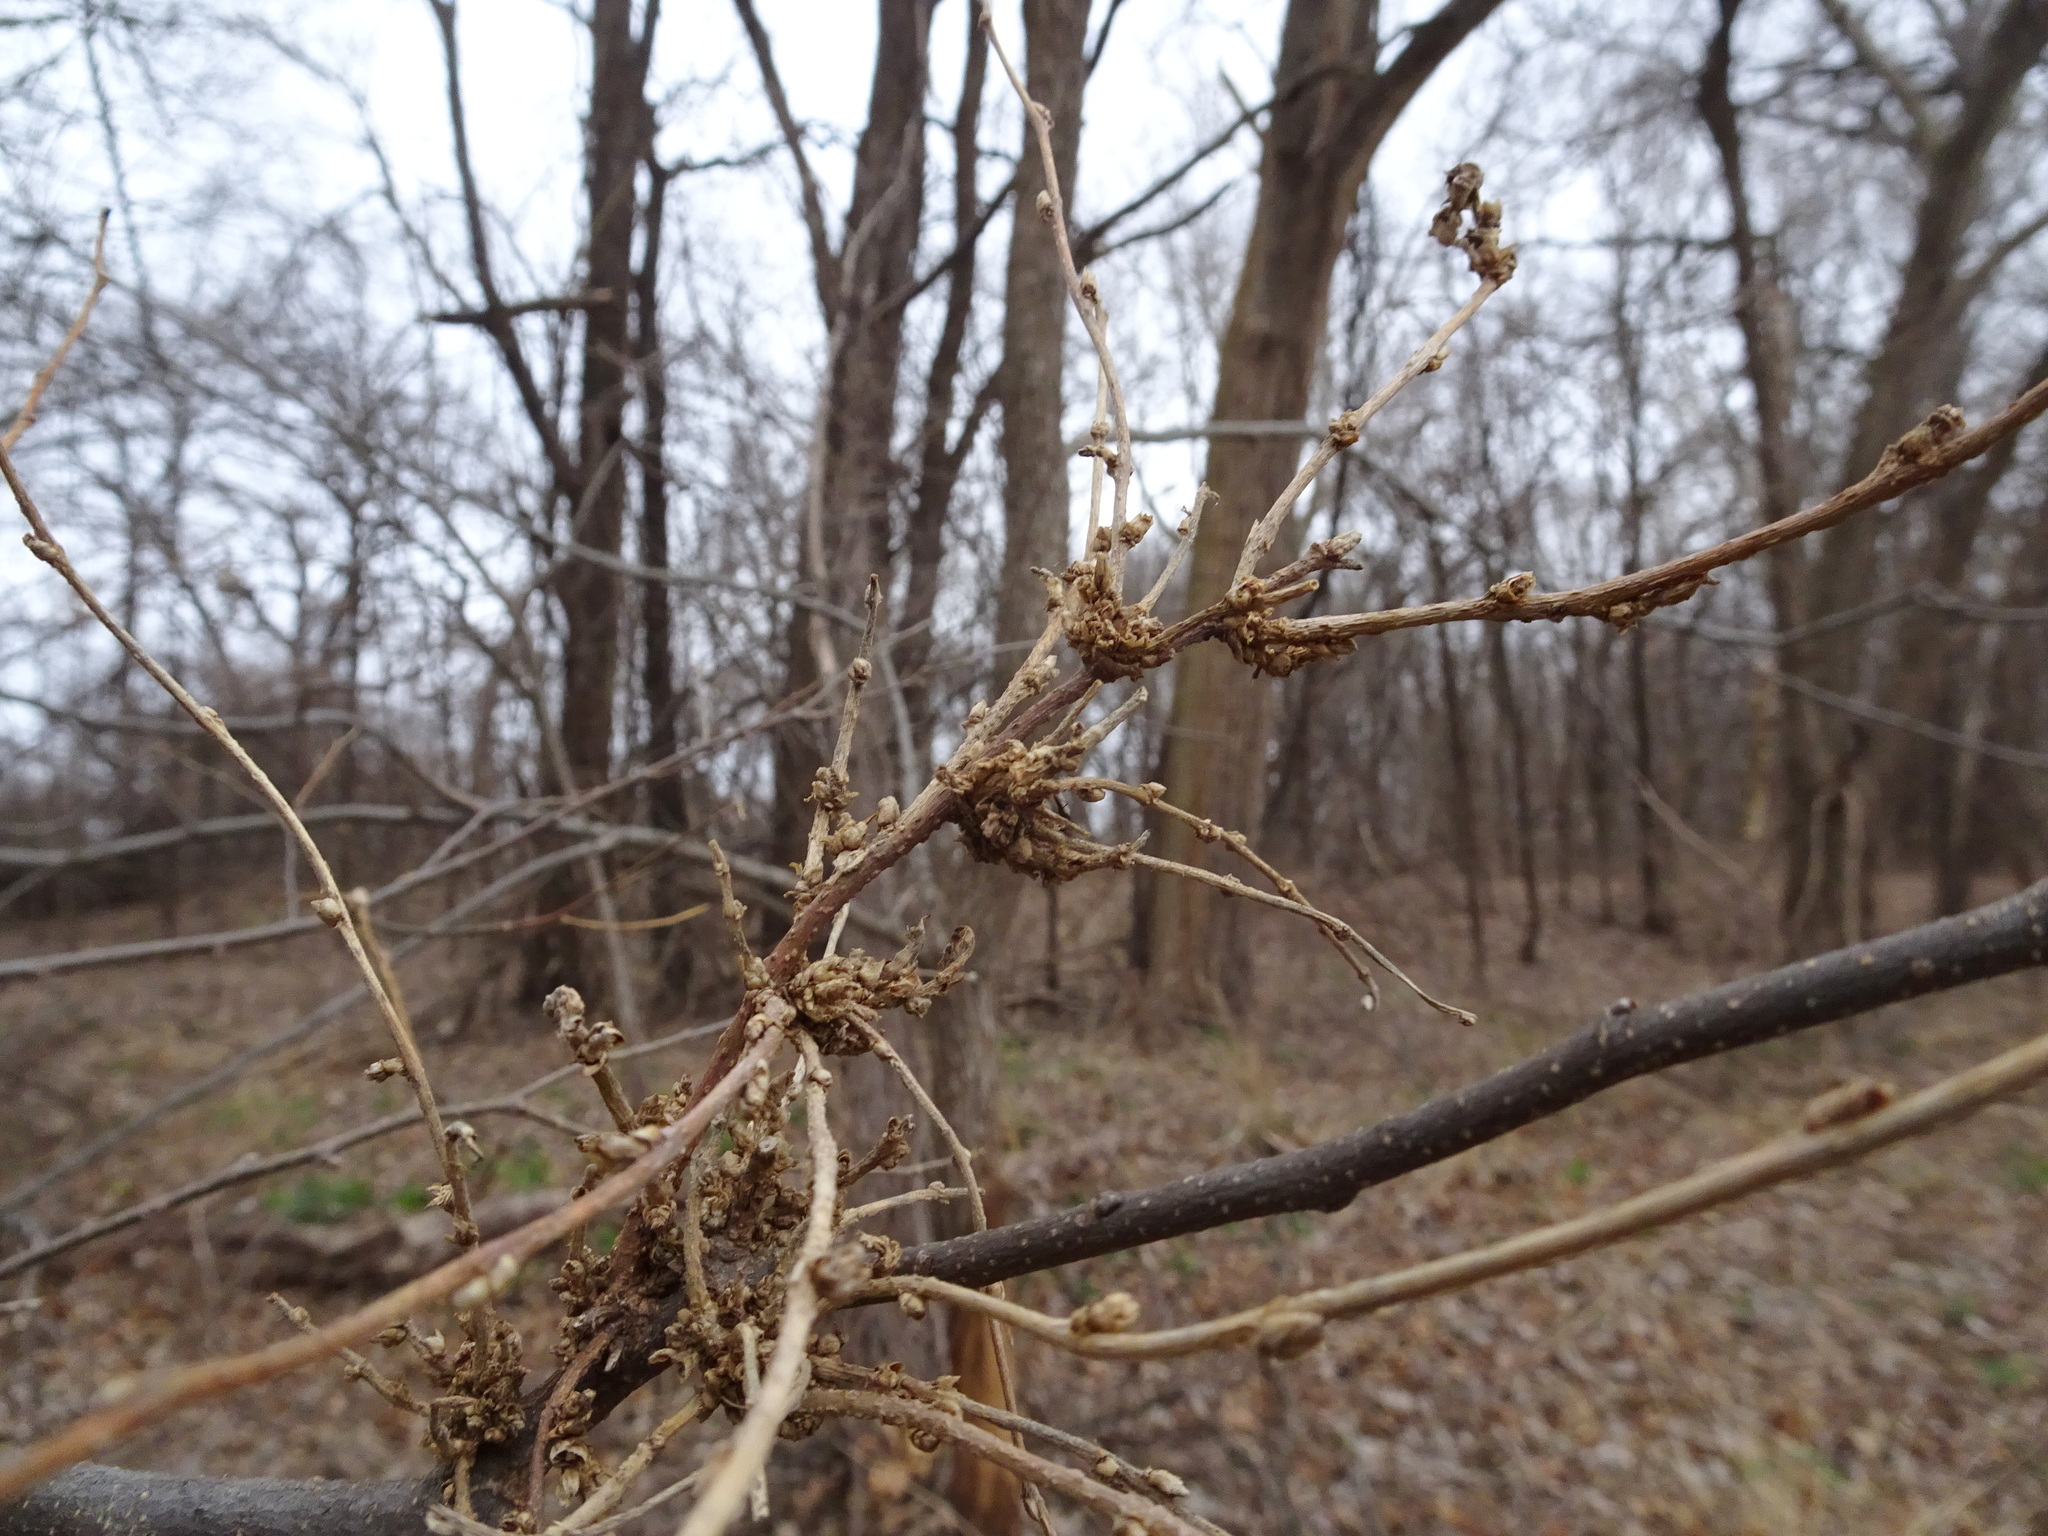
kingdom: Animalia
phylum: Arthropoda
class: Arachnida
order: Trombidiformes
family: Eriophyidae
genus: Aceria
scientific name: Aceria
